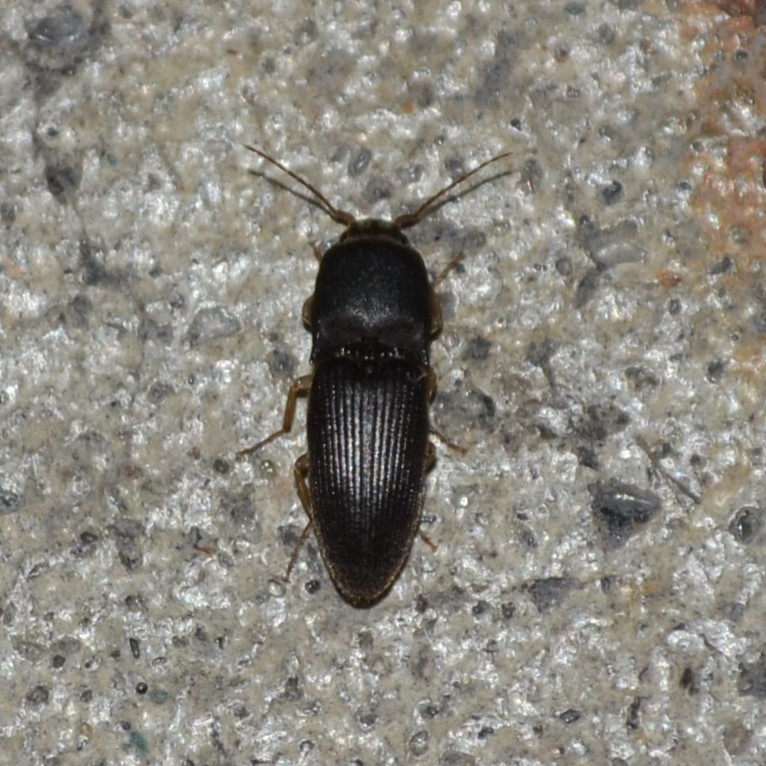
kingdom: Animalia
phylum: Arthropoda
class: Insecta
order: Coleoptera
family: Elateridae
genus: Heteroderes
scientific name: Heteroderes amplicollis
